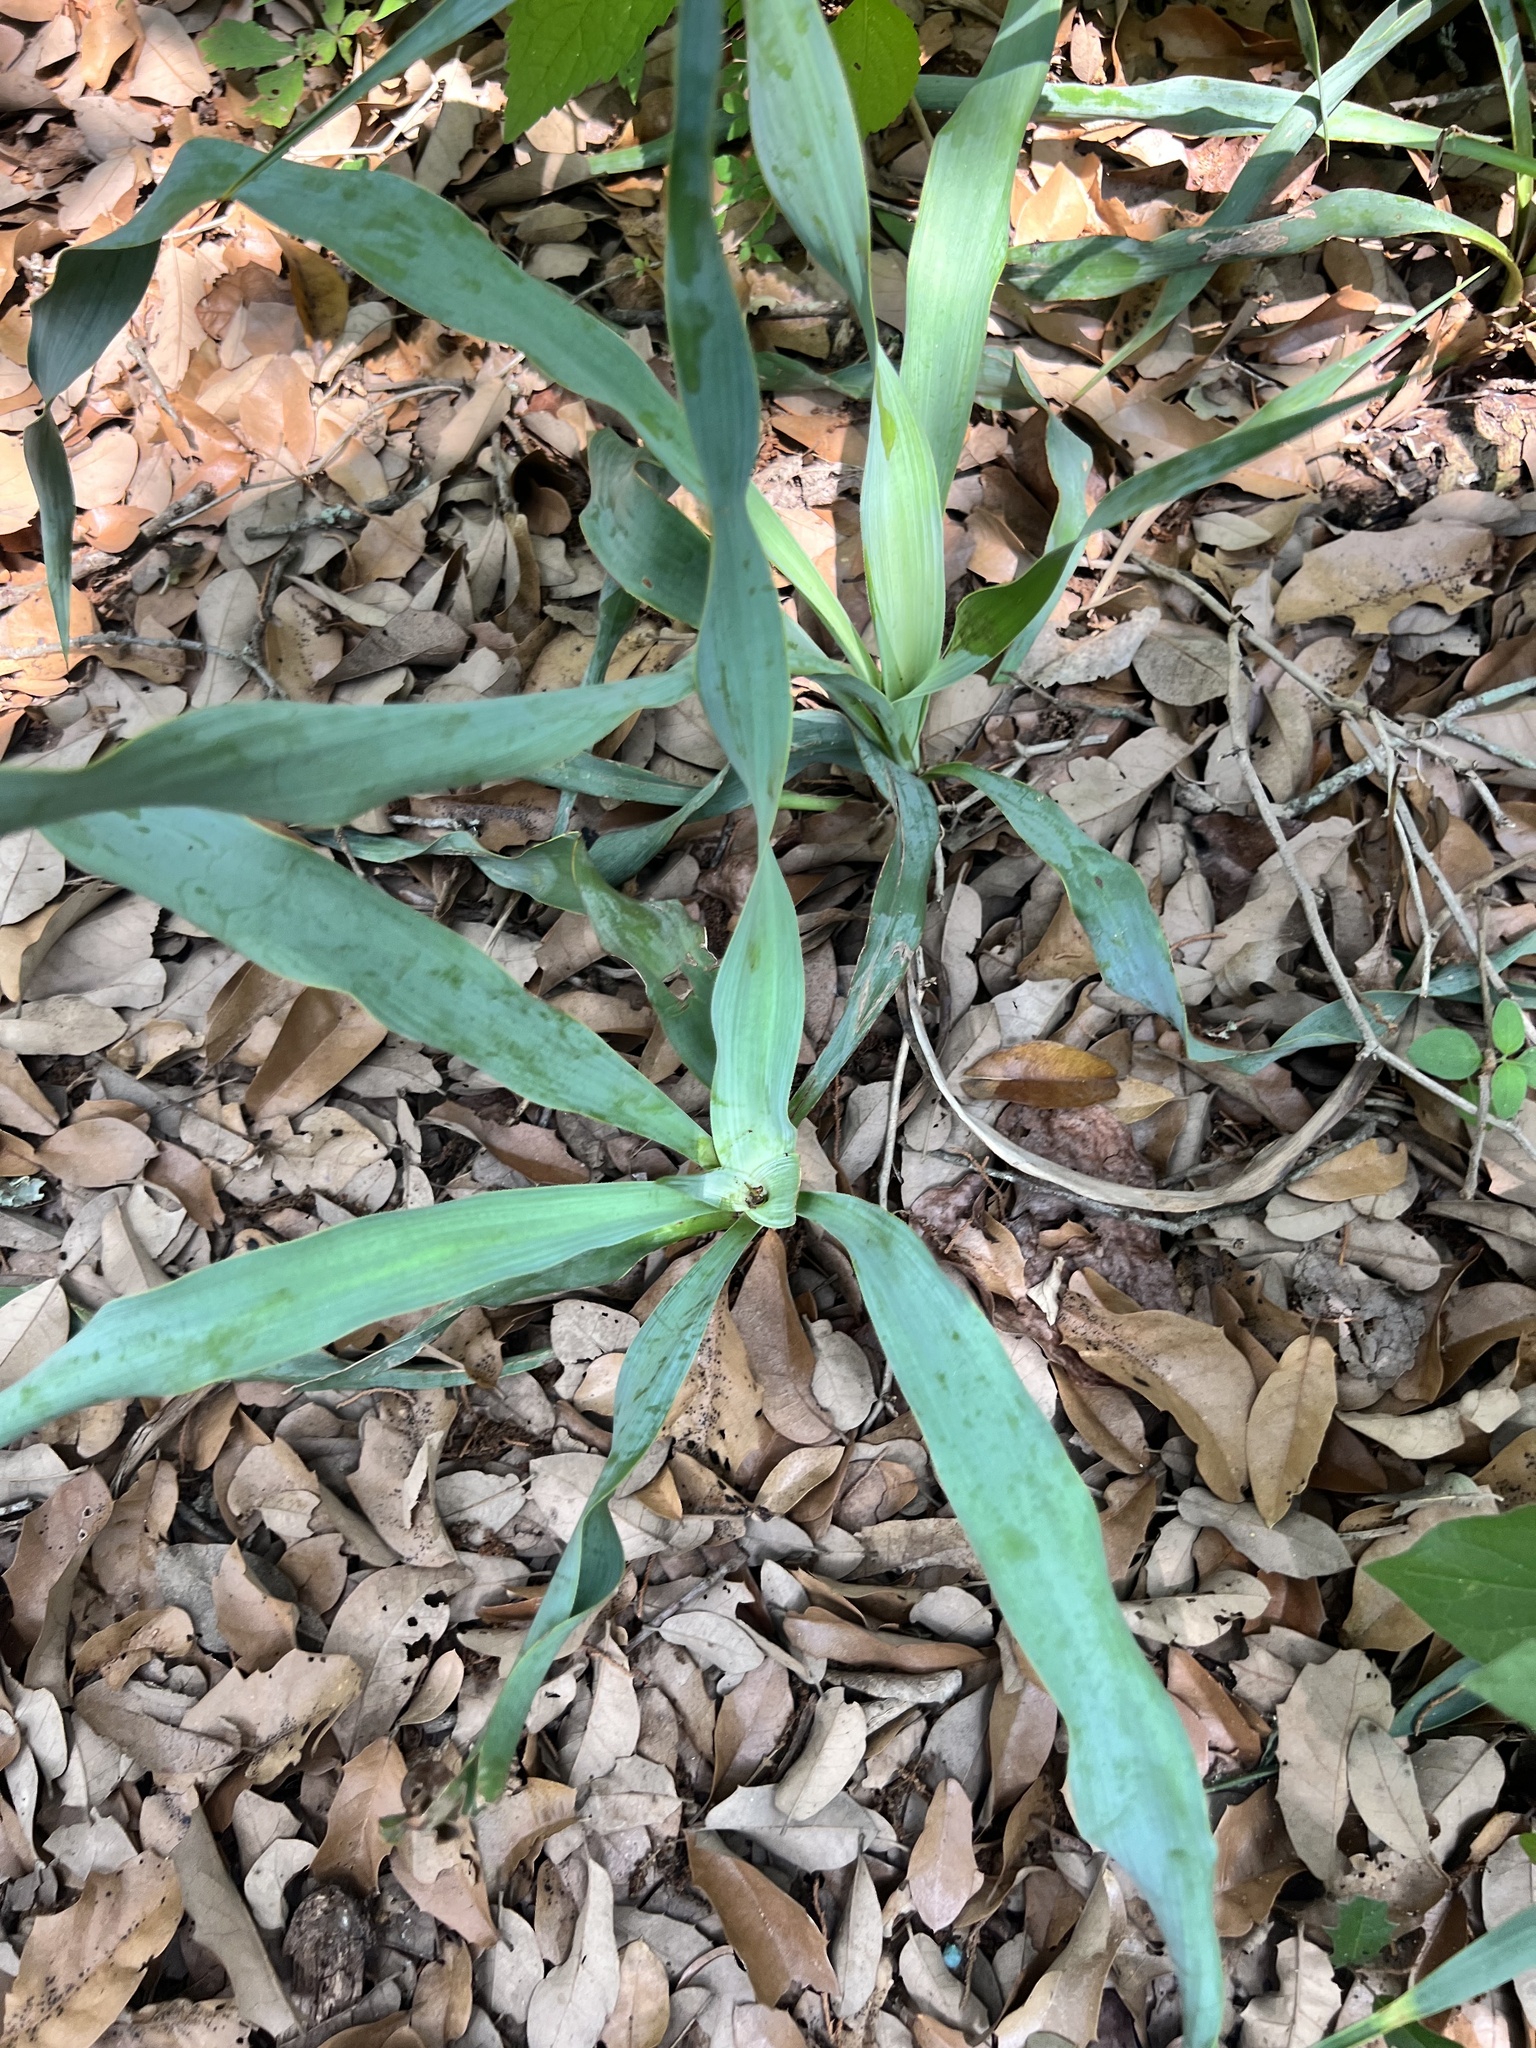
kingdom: Plantae
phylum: Tracheophyta
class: Liliopsida
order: Asparagales
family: Asparagaceae
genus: Yucca
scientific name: Yucca rupicola
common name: Twisted-leaf spanish-dagger
